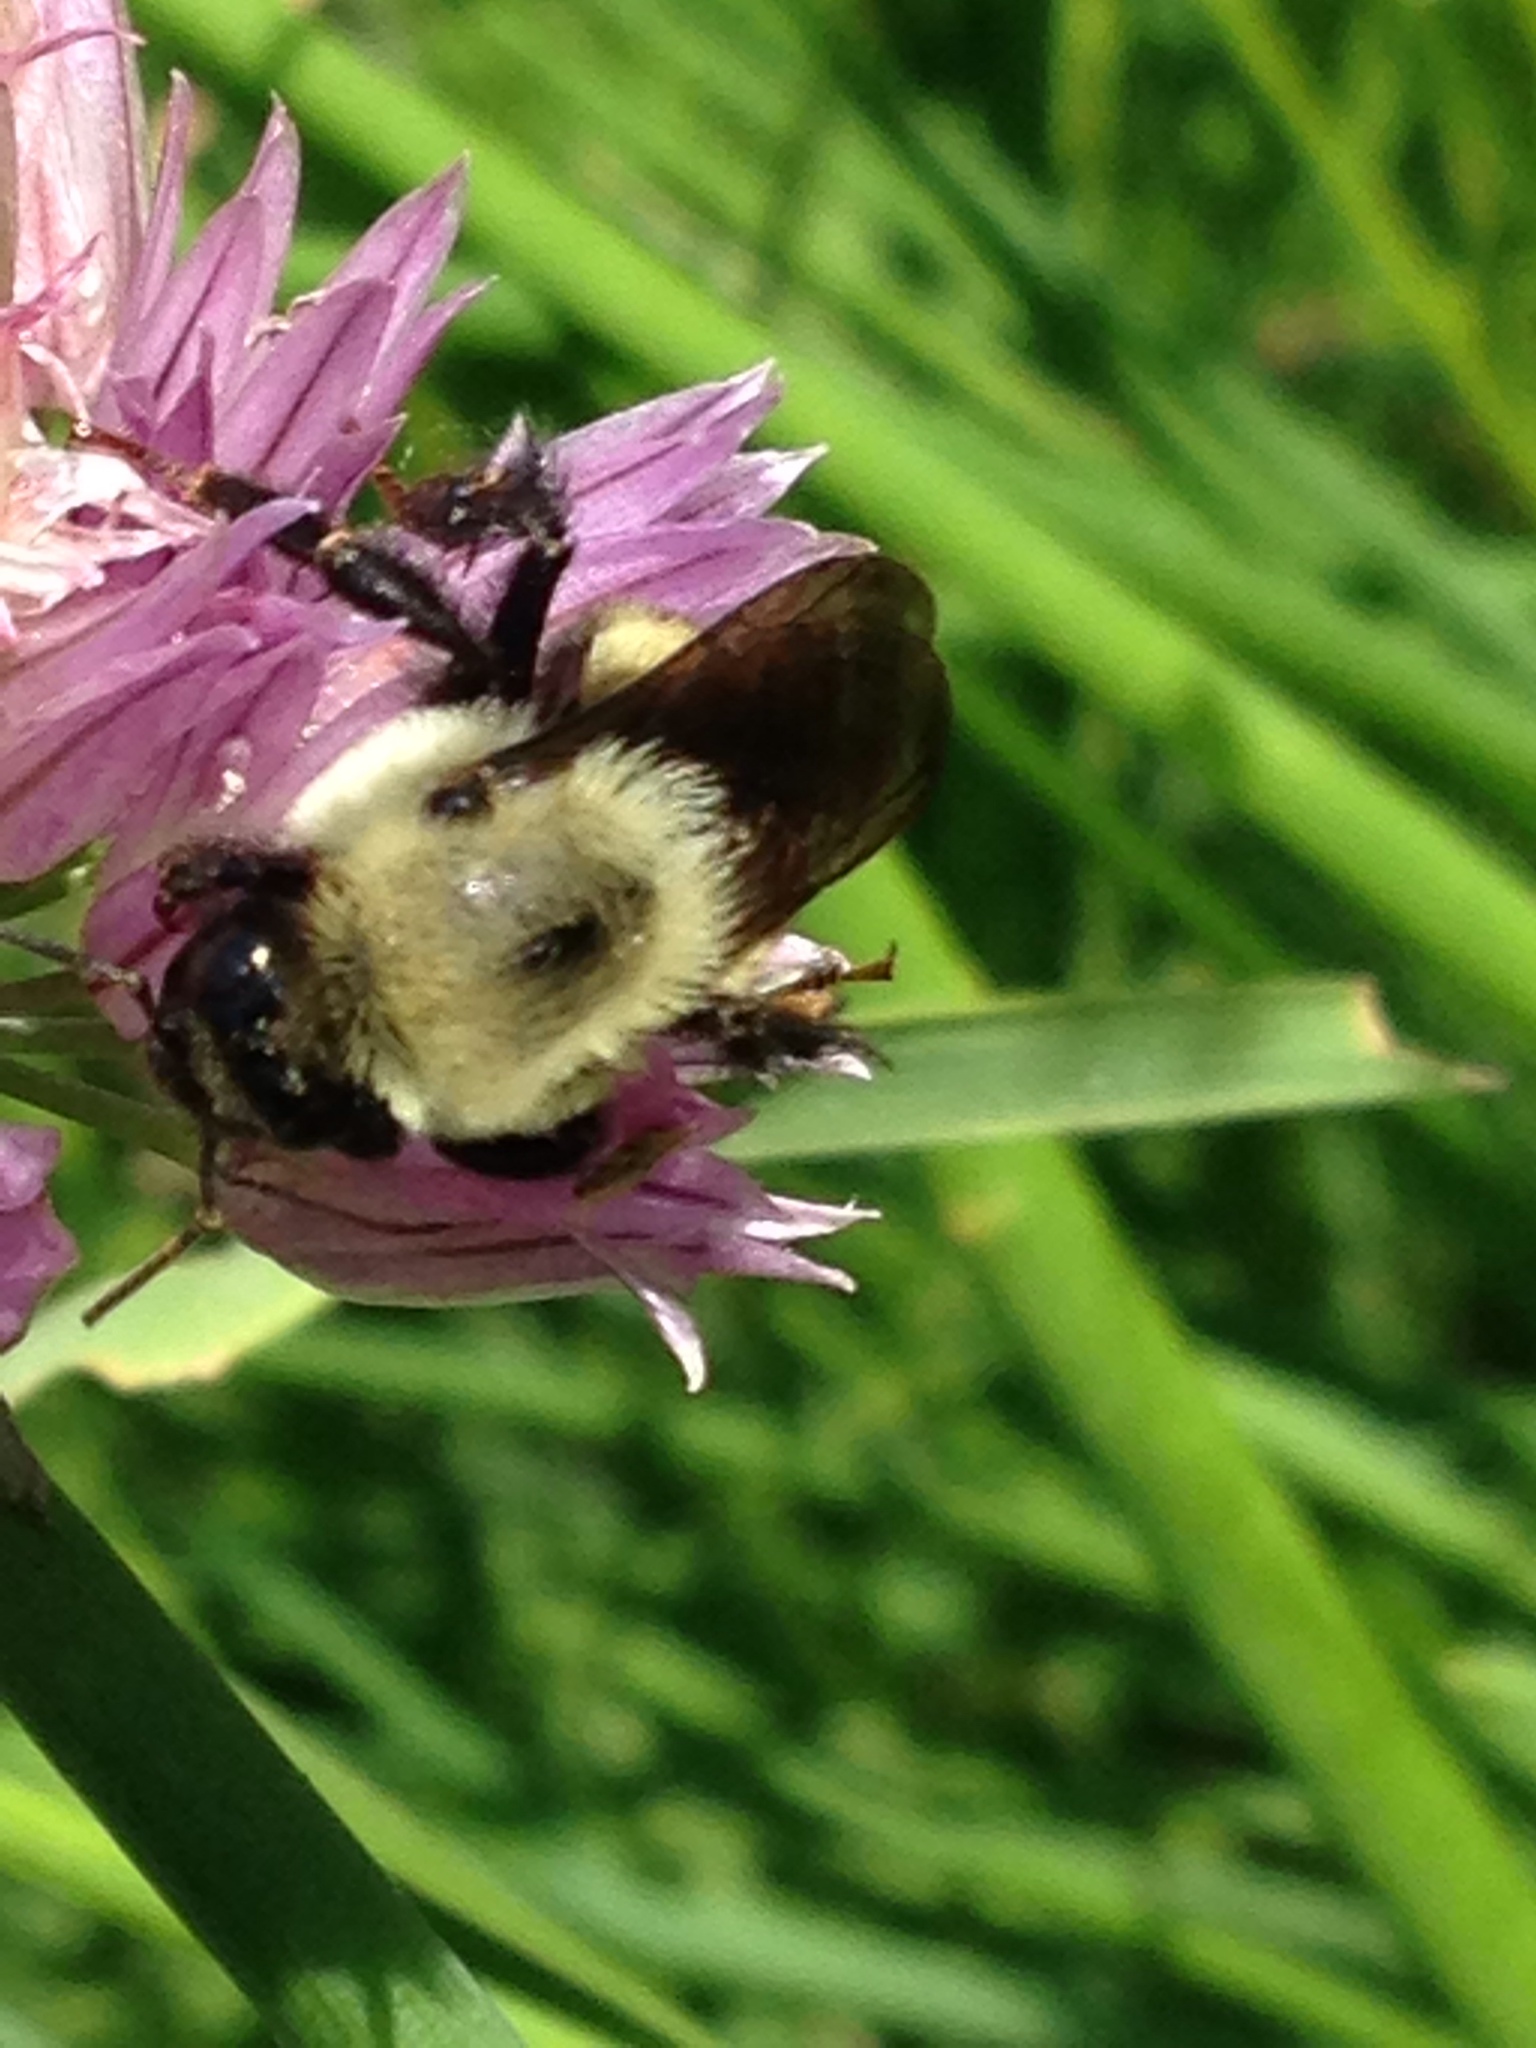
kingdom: Animalia
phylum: Arthropoda
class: Insecta
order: Hymenoptera
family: Apidae
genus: Bombus
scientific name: Bombus griseocollis
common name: Brown-belted bumble bee
